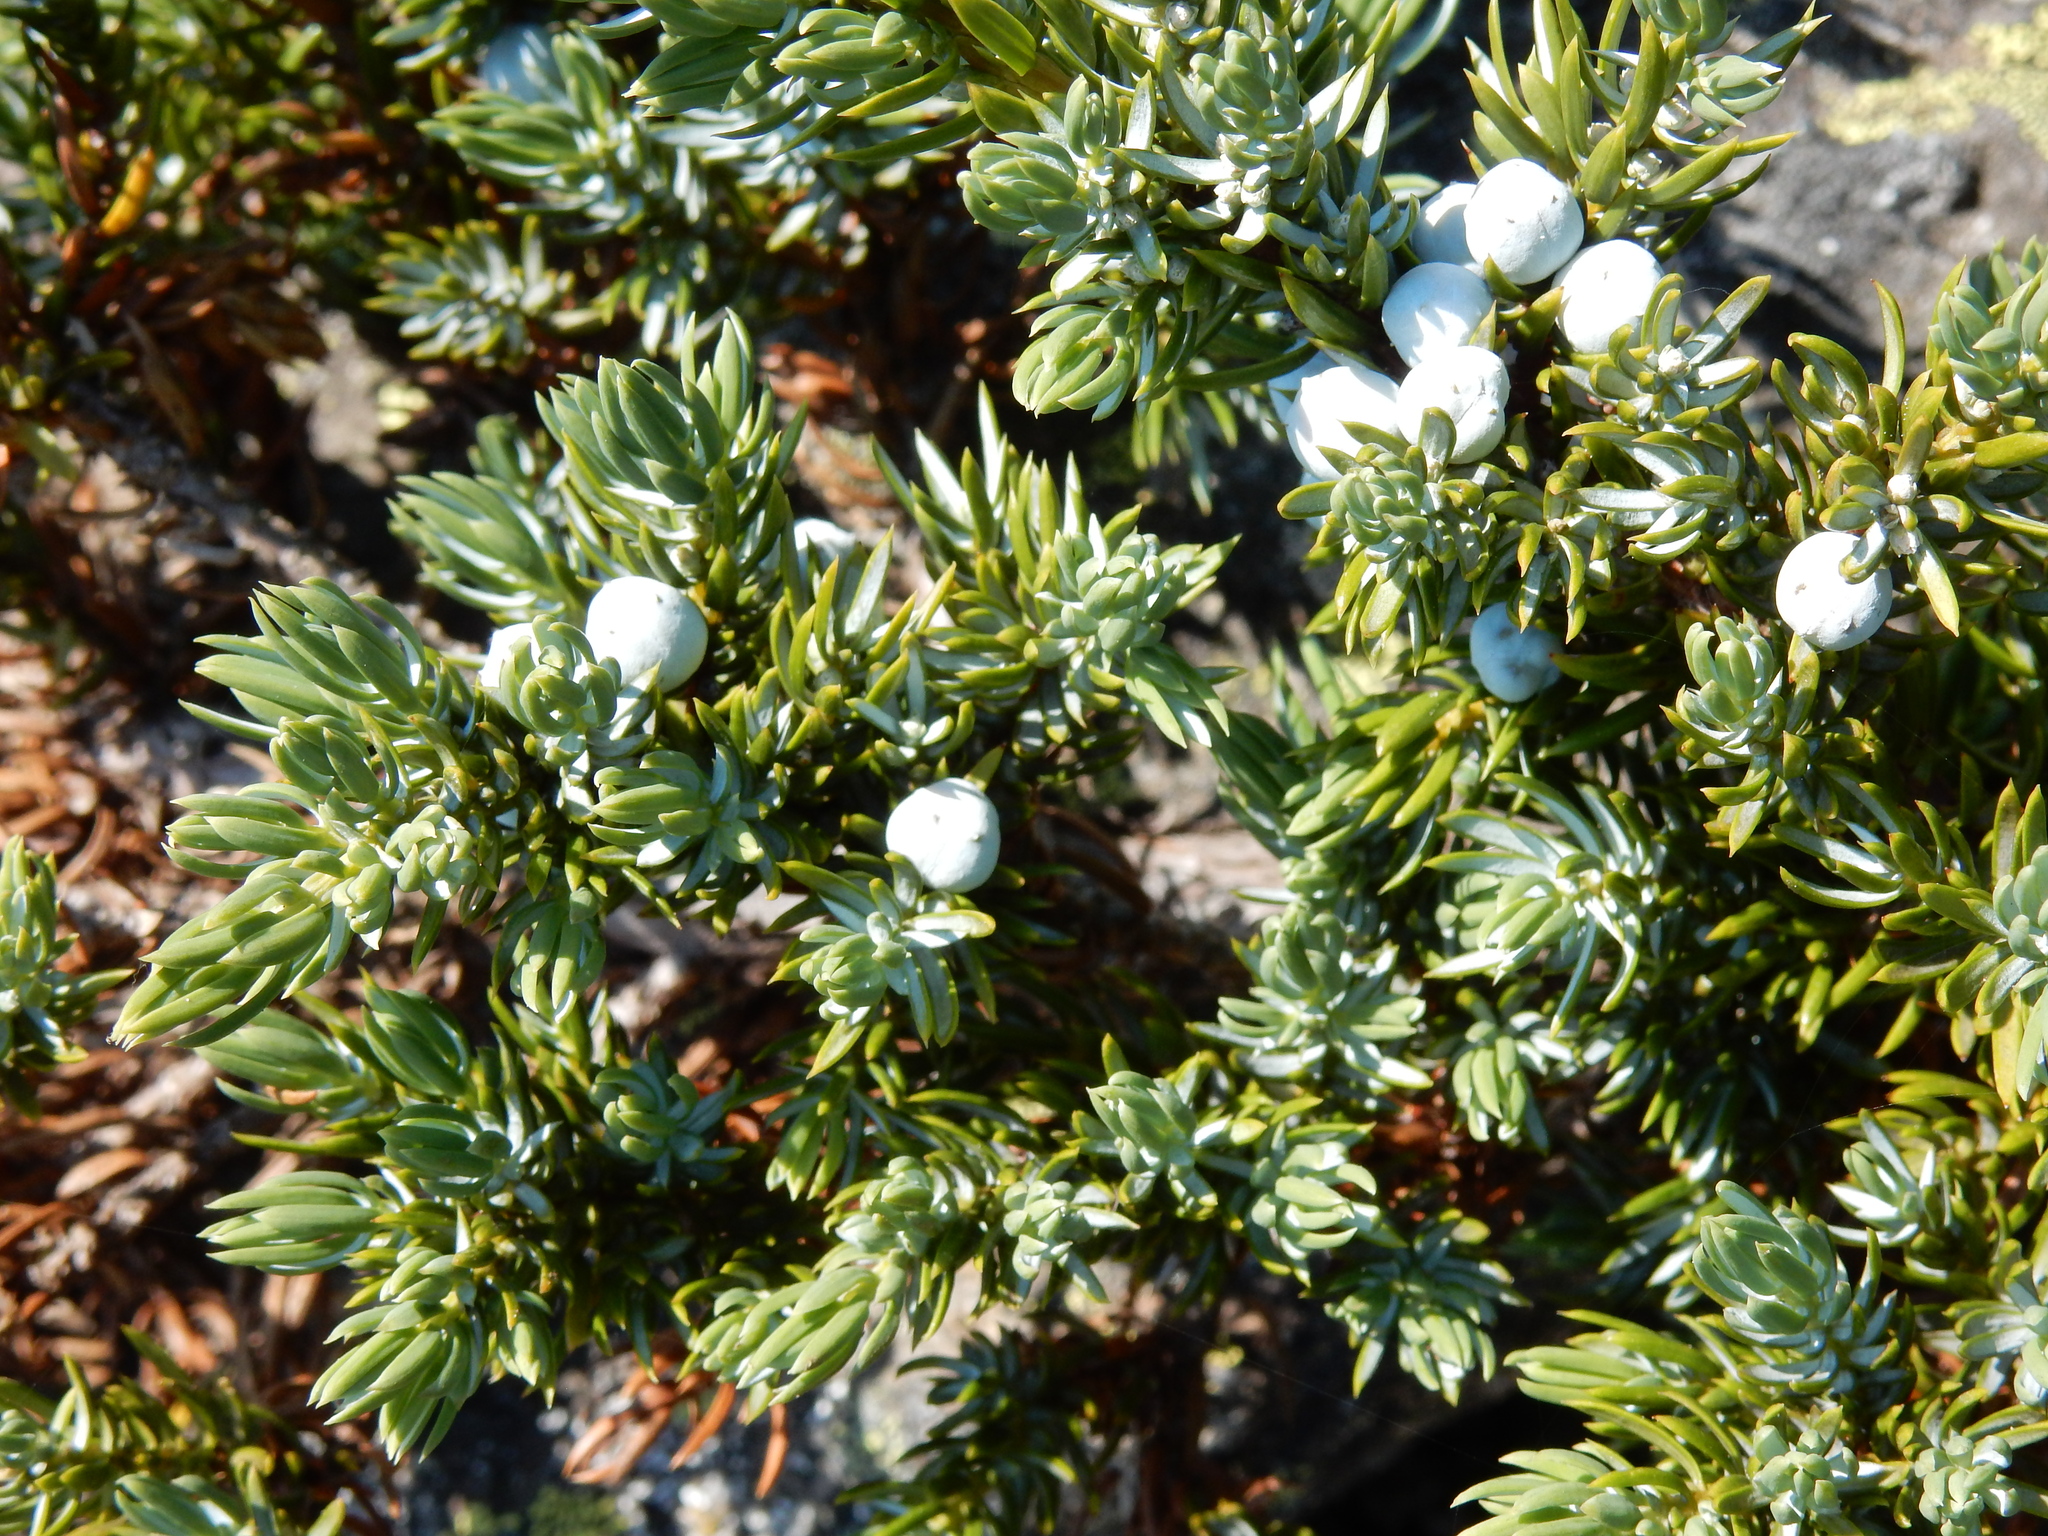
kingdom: Plantae
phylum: Tracheophyta
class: Pinopsida
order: Pinales
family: Cupressaceae
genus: Juniperus
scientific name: Juniperus communis
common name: Common juniper
